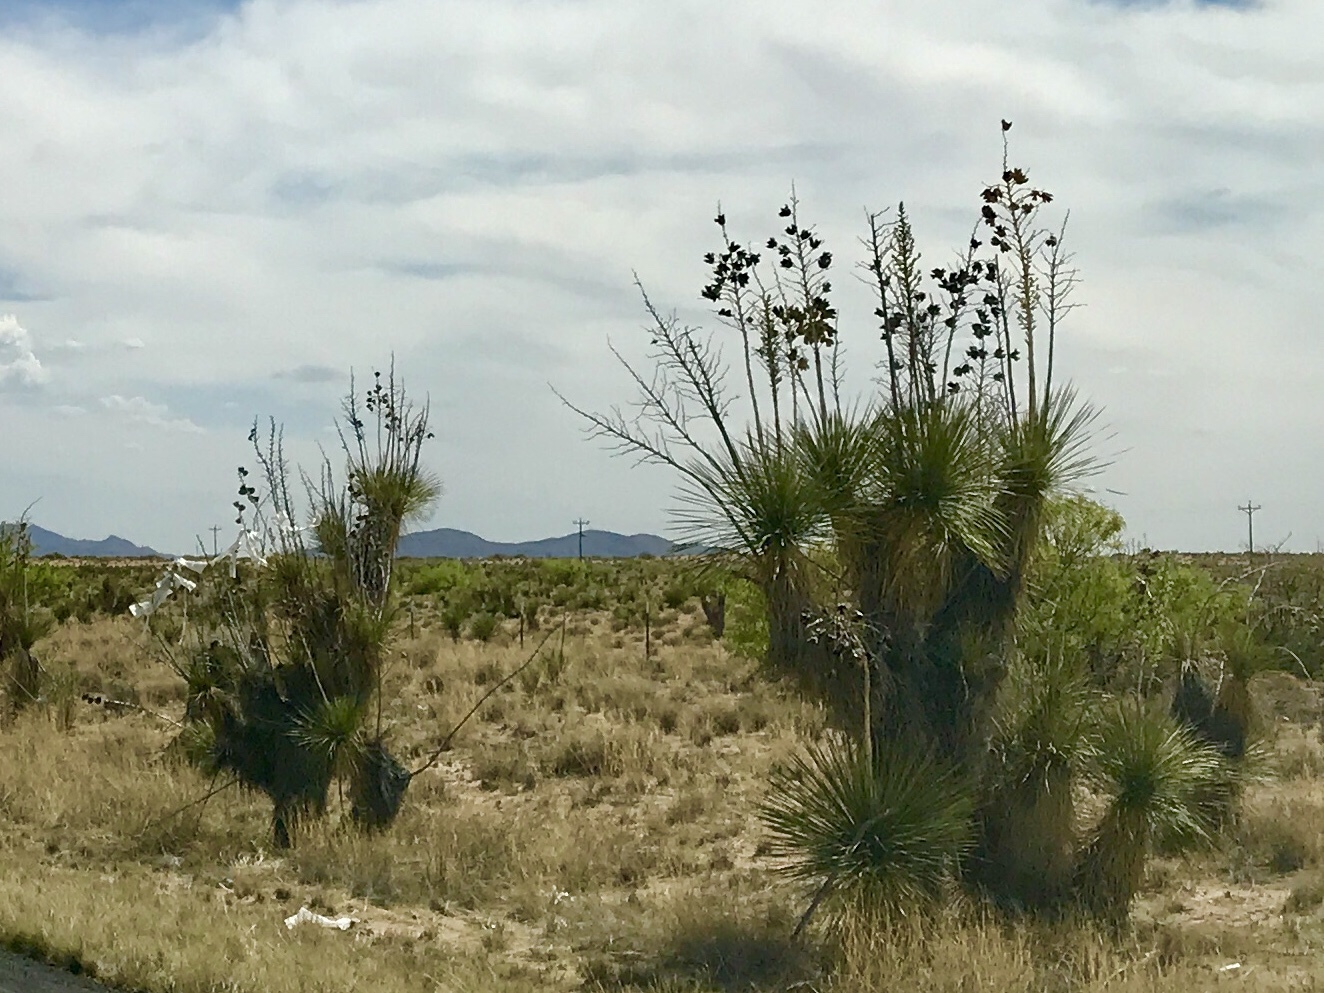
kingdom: Plantae
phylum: Tracheophyta
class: Liliopsida
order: Asparagales
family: Asparagaceae
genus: Yucca
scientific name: Yucca elata
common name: Palmella
